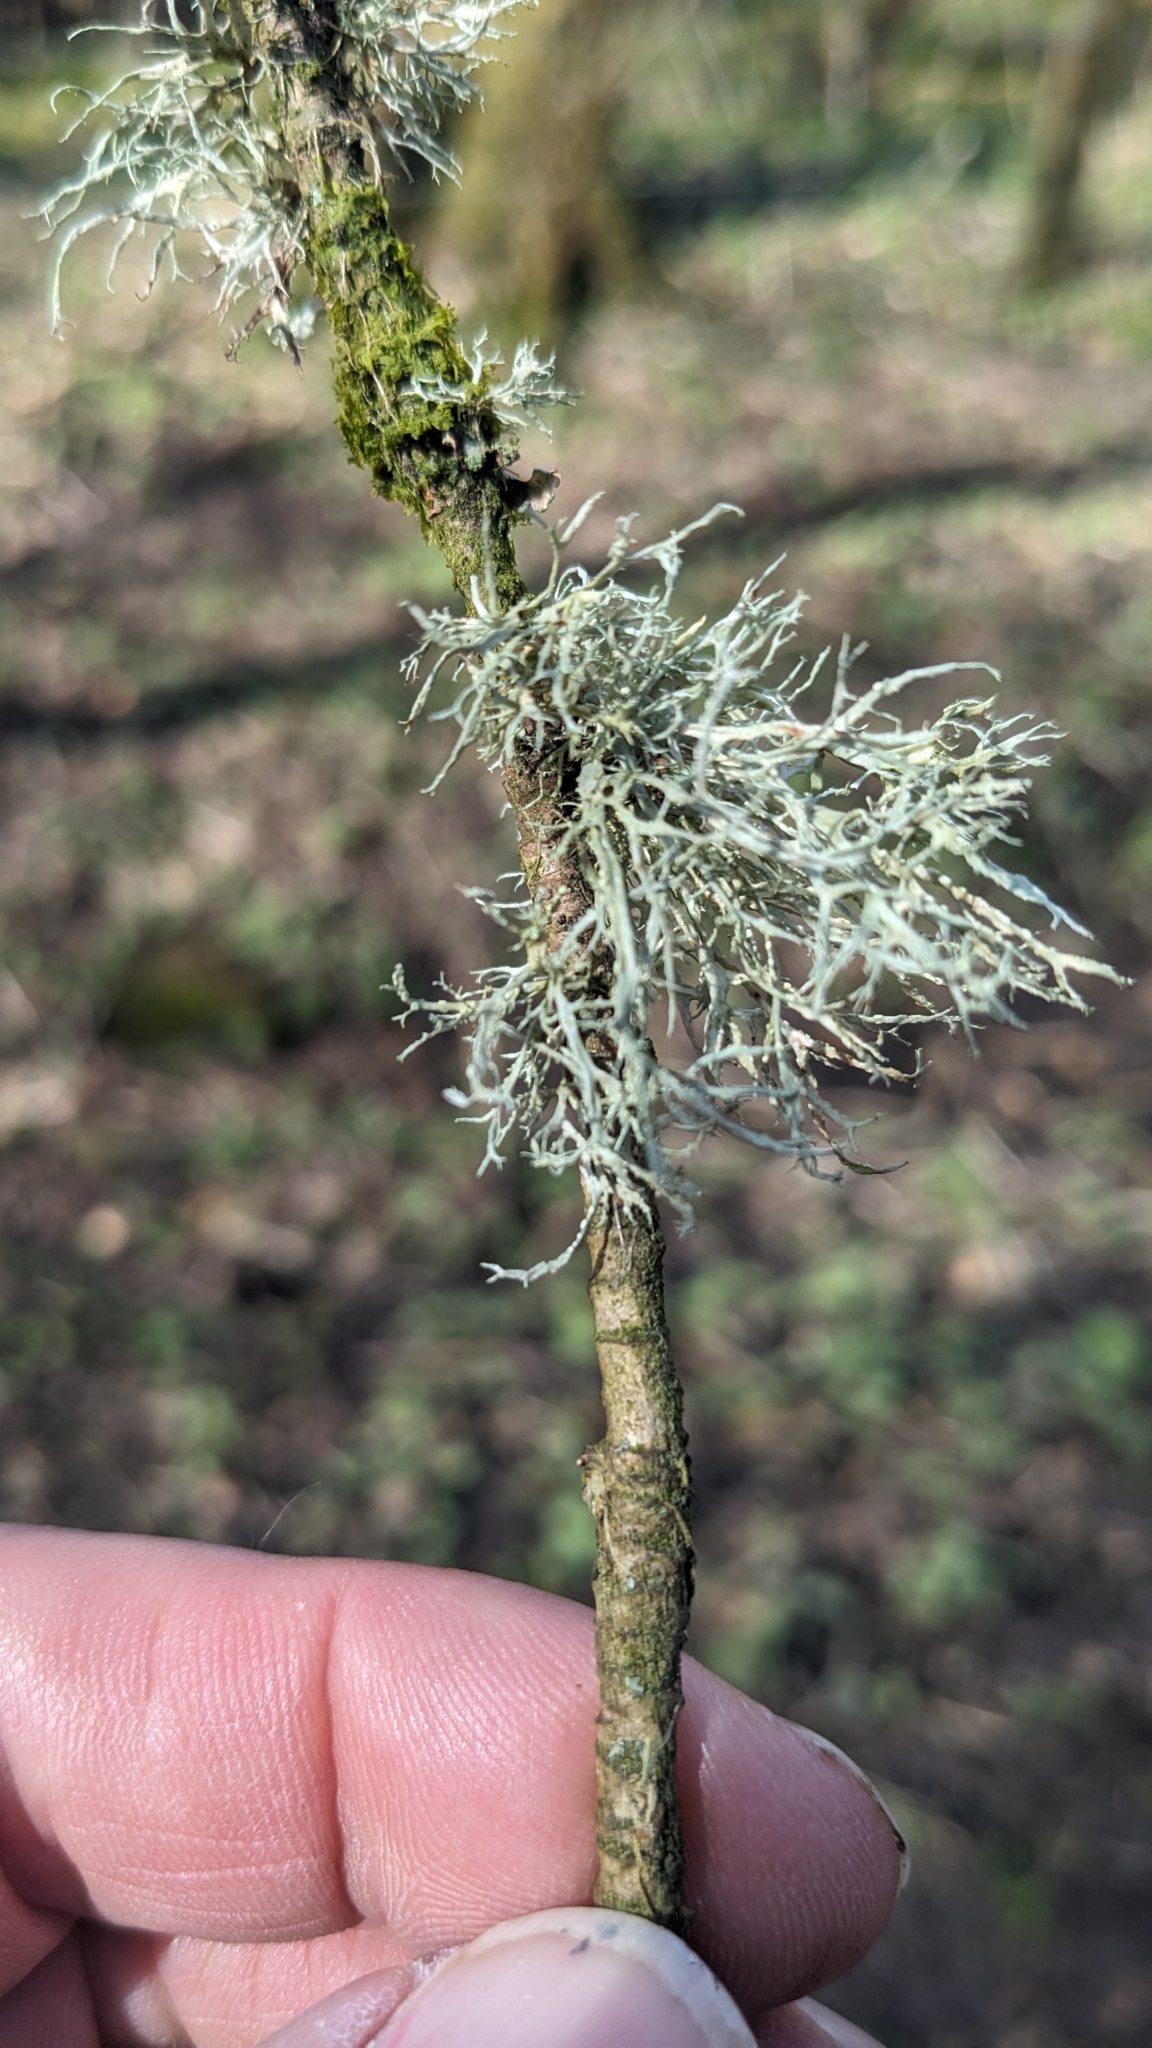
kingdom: Fungi
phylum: Ascomycota
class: Lecanoromycetes
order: Lecanorales
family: Ramalinaceae
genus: Ramalina
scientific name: Ramalina farinacea
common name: Farinose cartilage lichen
